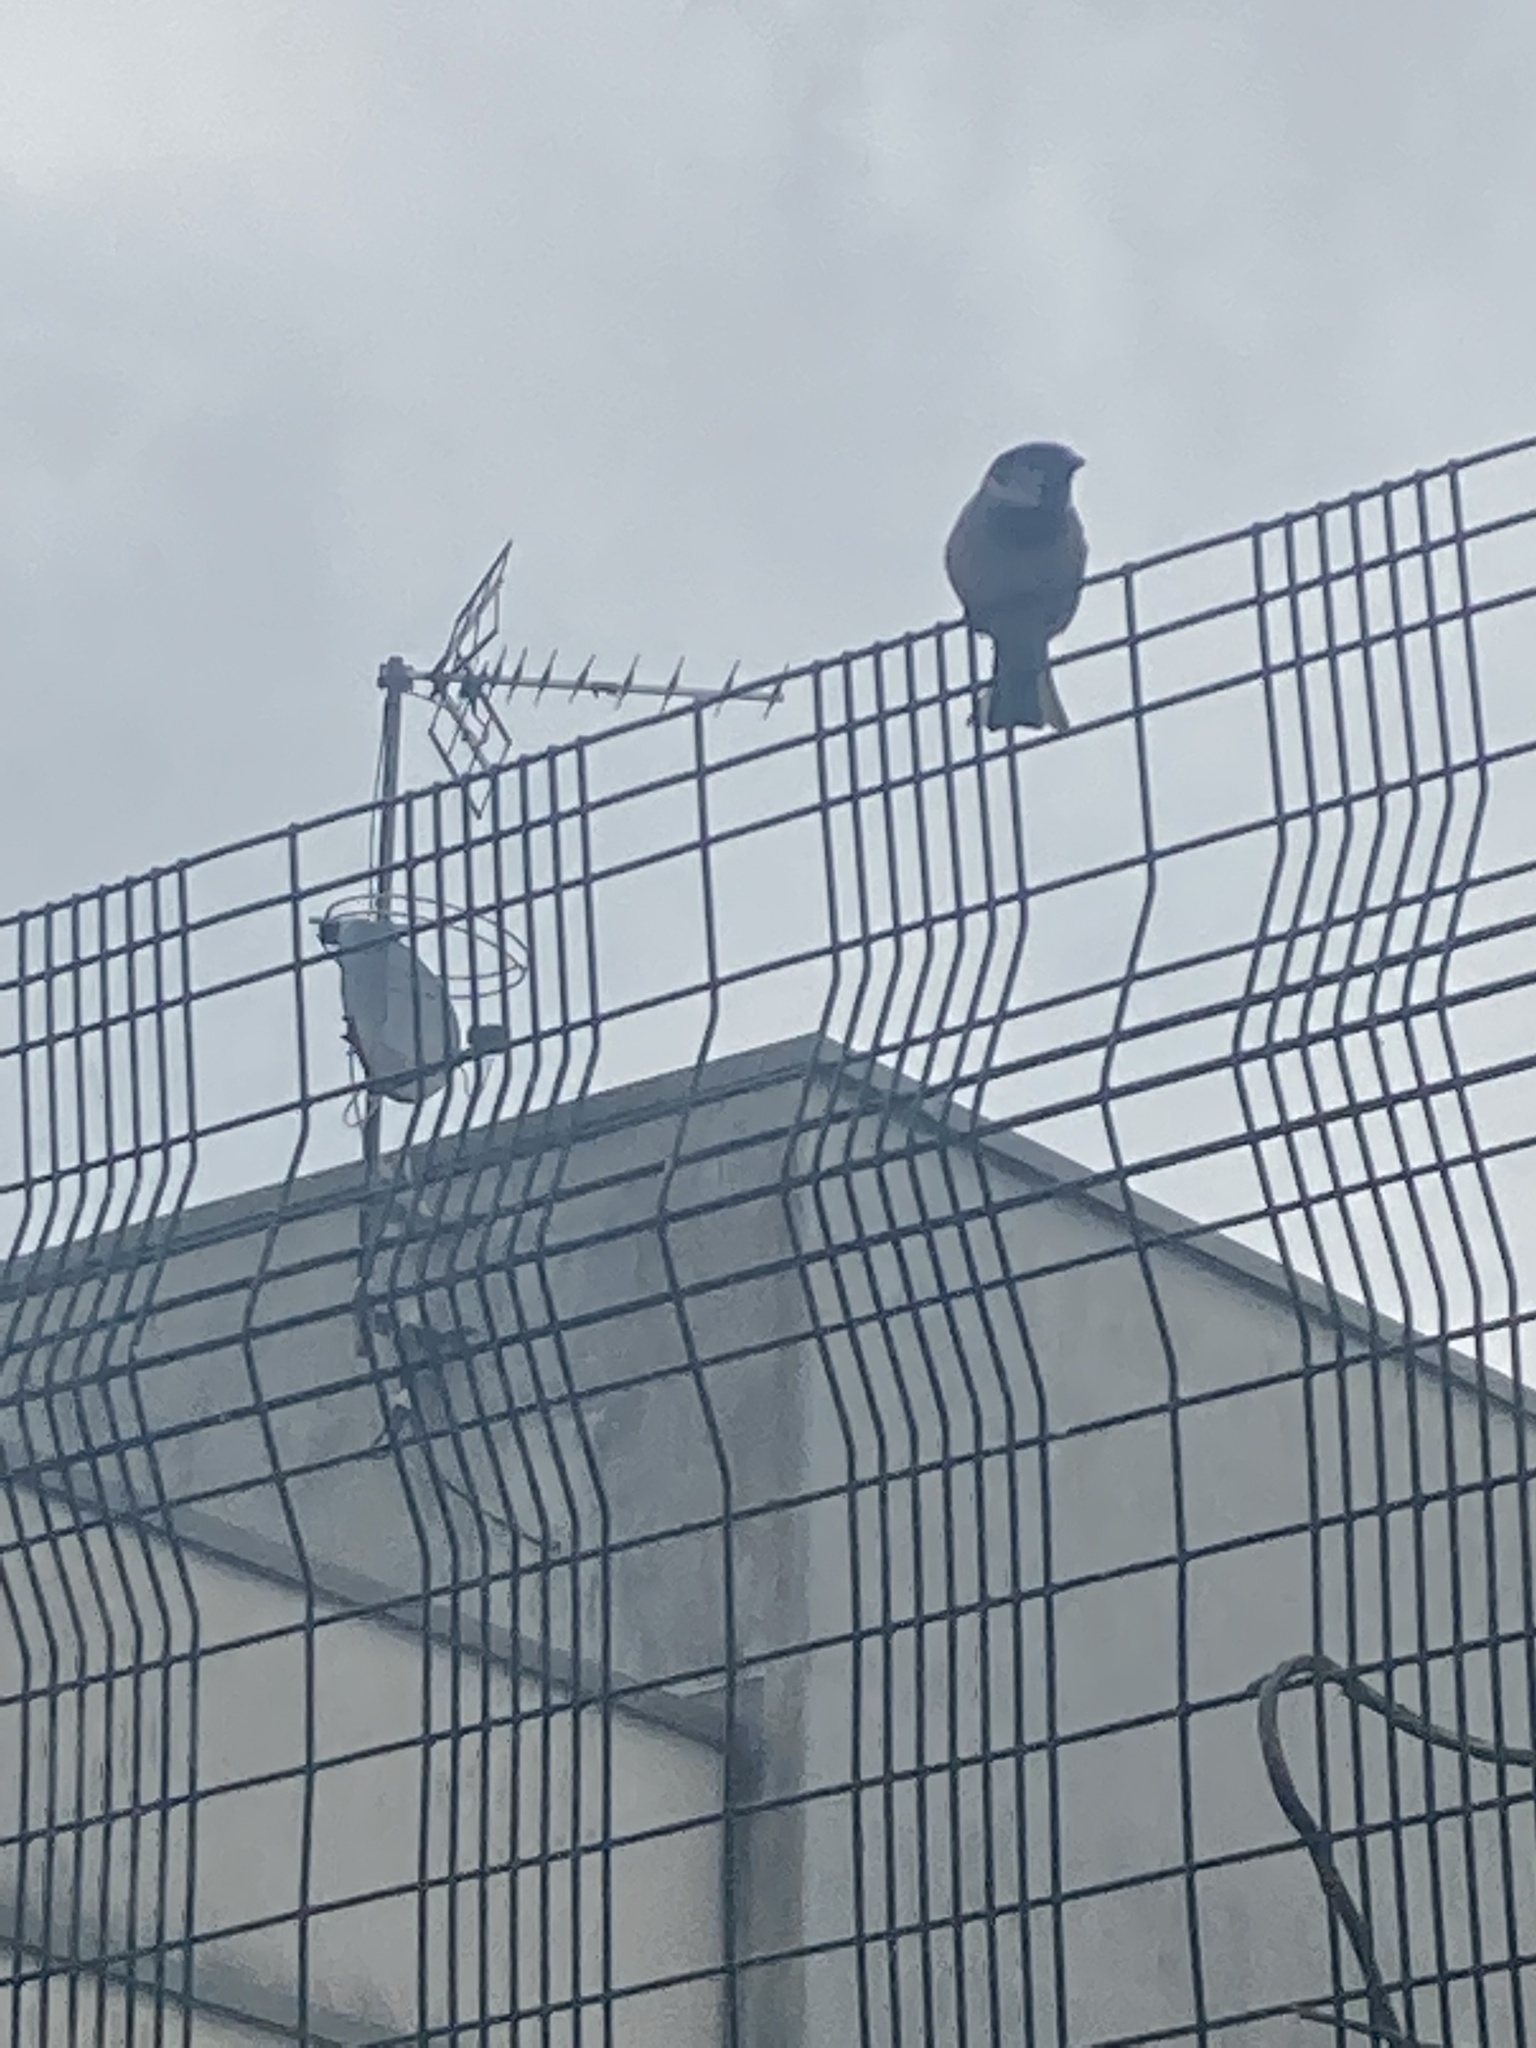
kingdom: Animalia
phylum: Chordata
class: Aves
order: Passeriformes
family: Passeridae
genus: Passer
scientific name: Passer domesticus
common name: House sparrow
